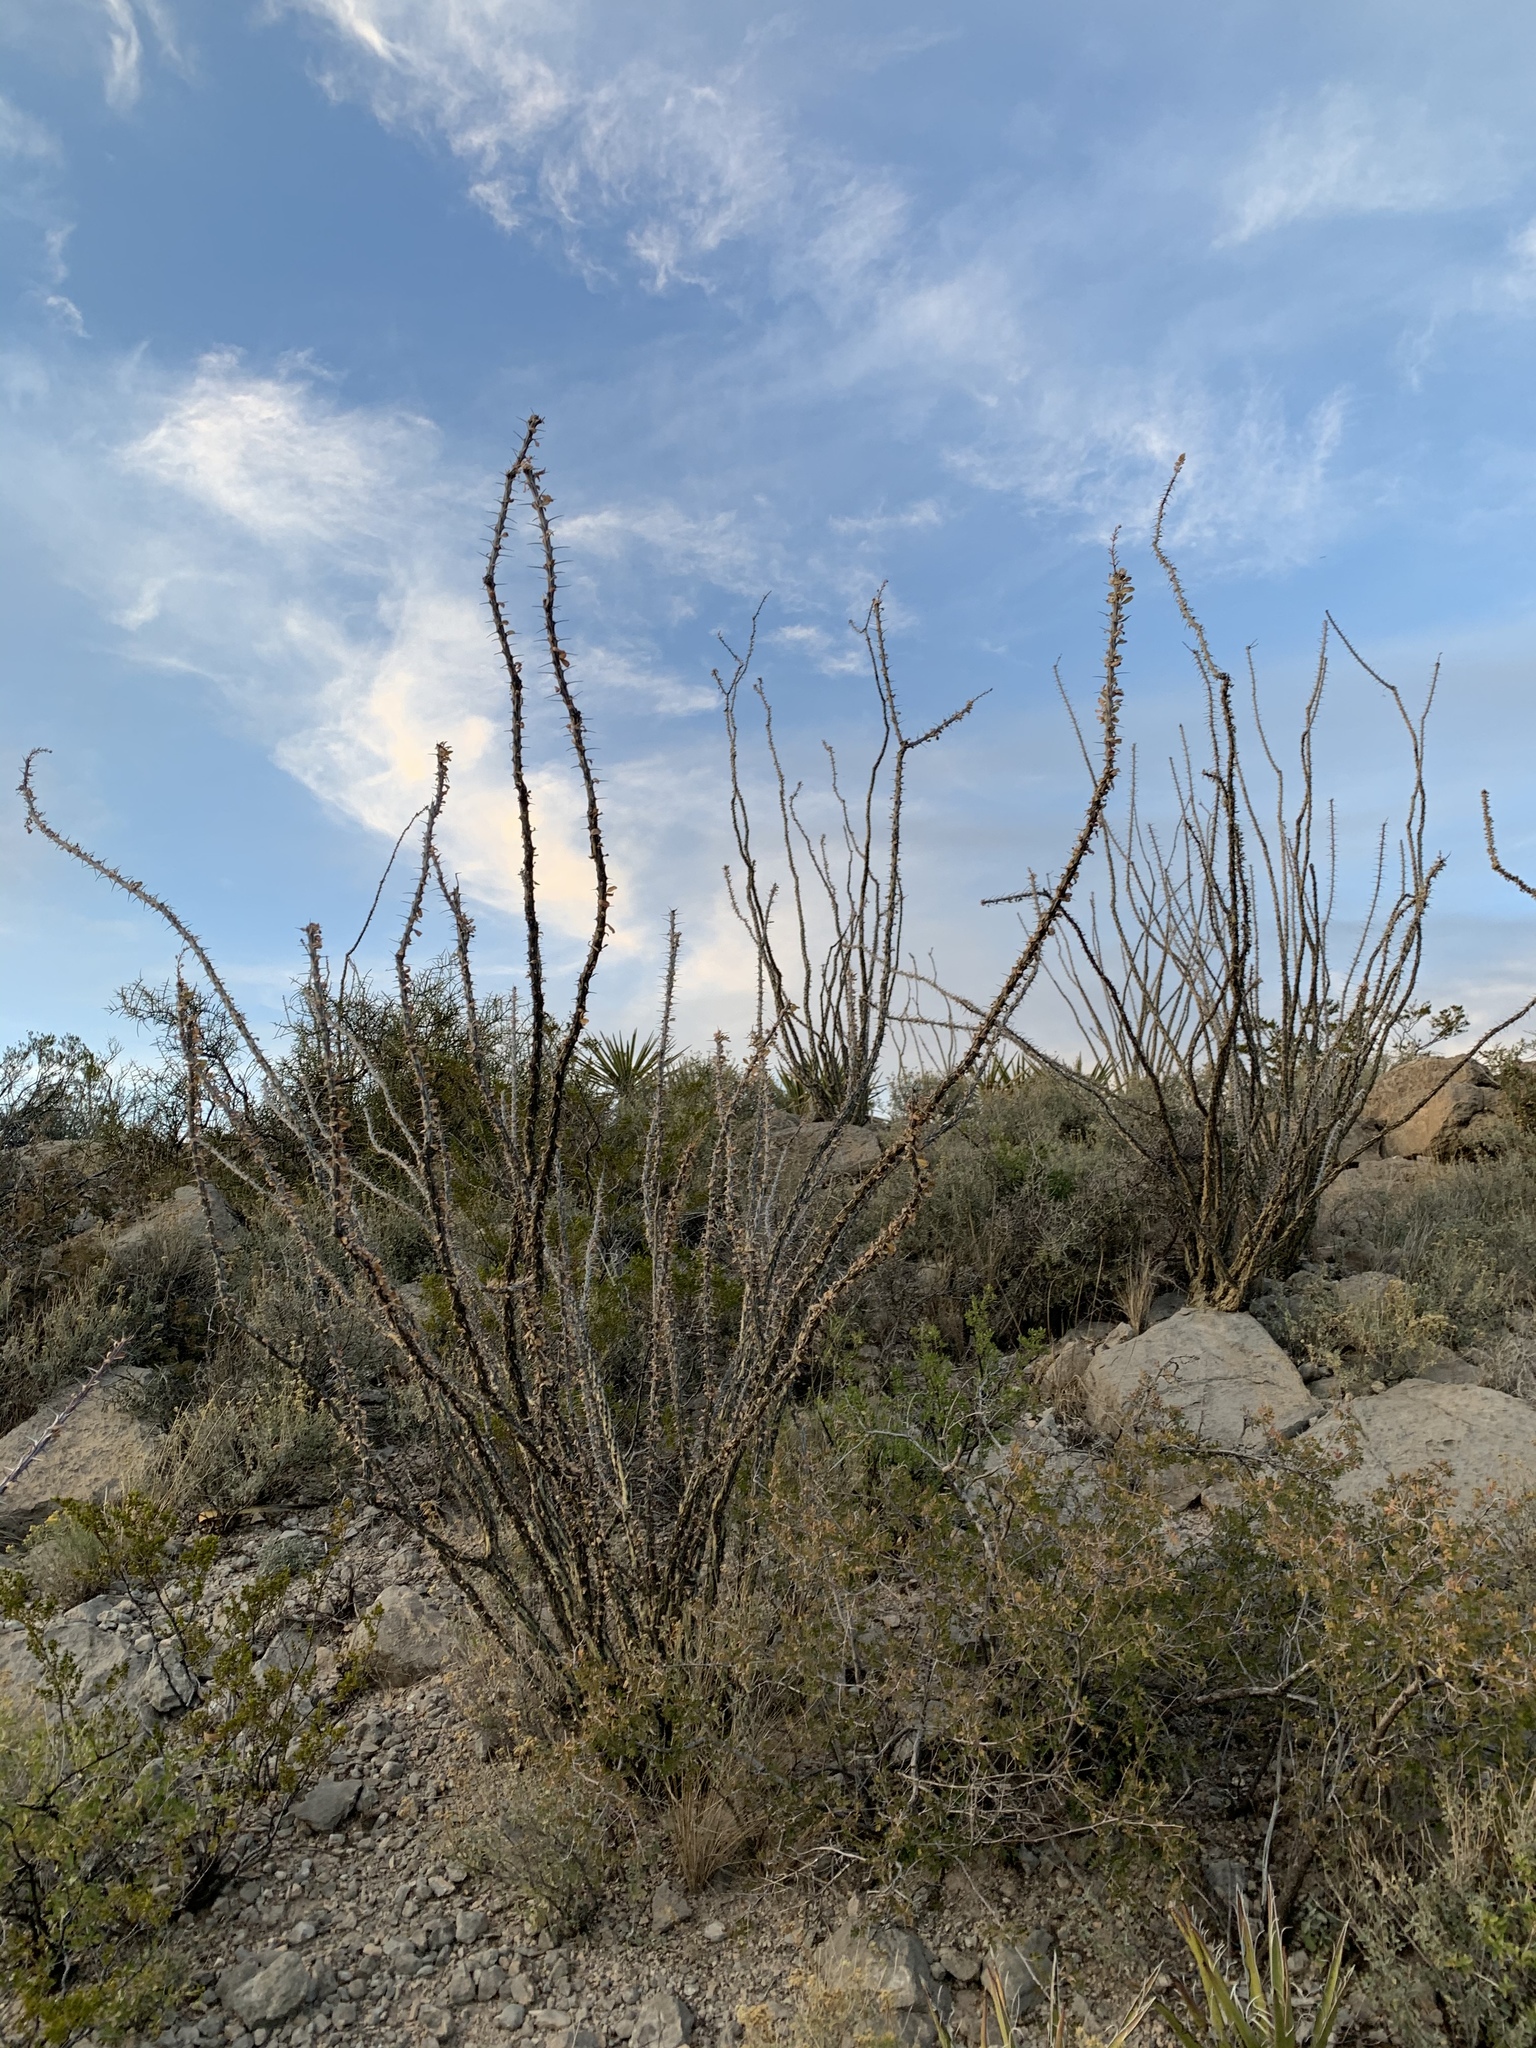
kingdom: Plantae
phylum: Tracheophyta
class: Magnoliopsida
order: Ericales
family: Fouquieriaceae
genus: Fouquieria
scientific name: Fouquieria splendens
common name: Vine-cactus
